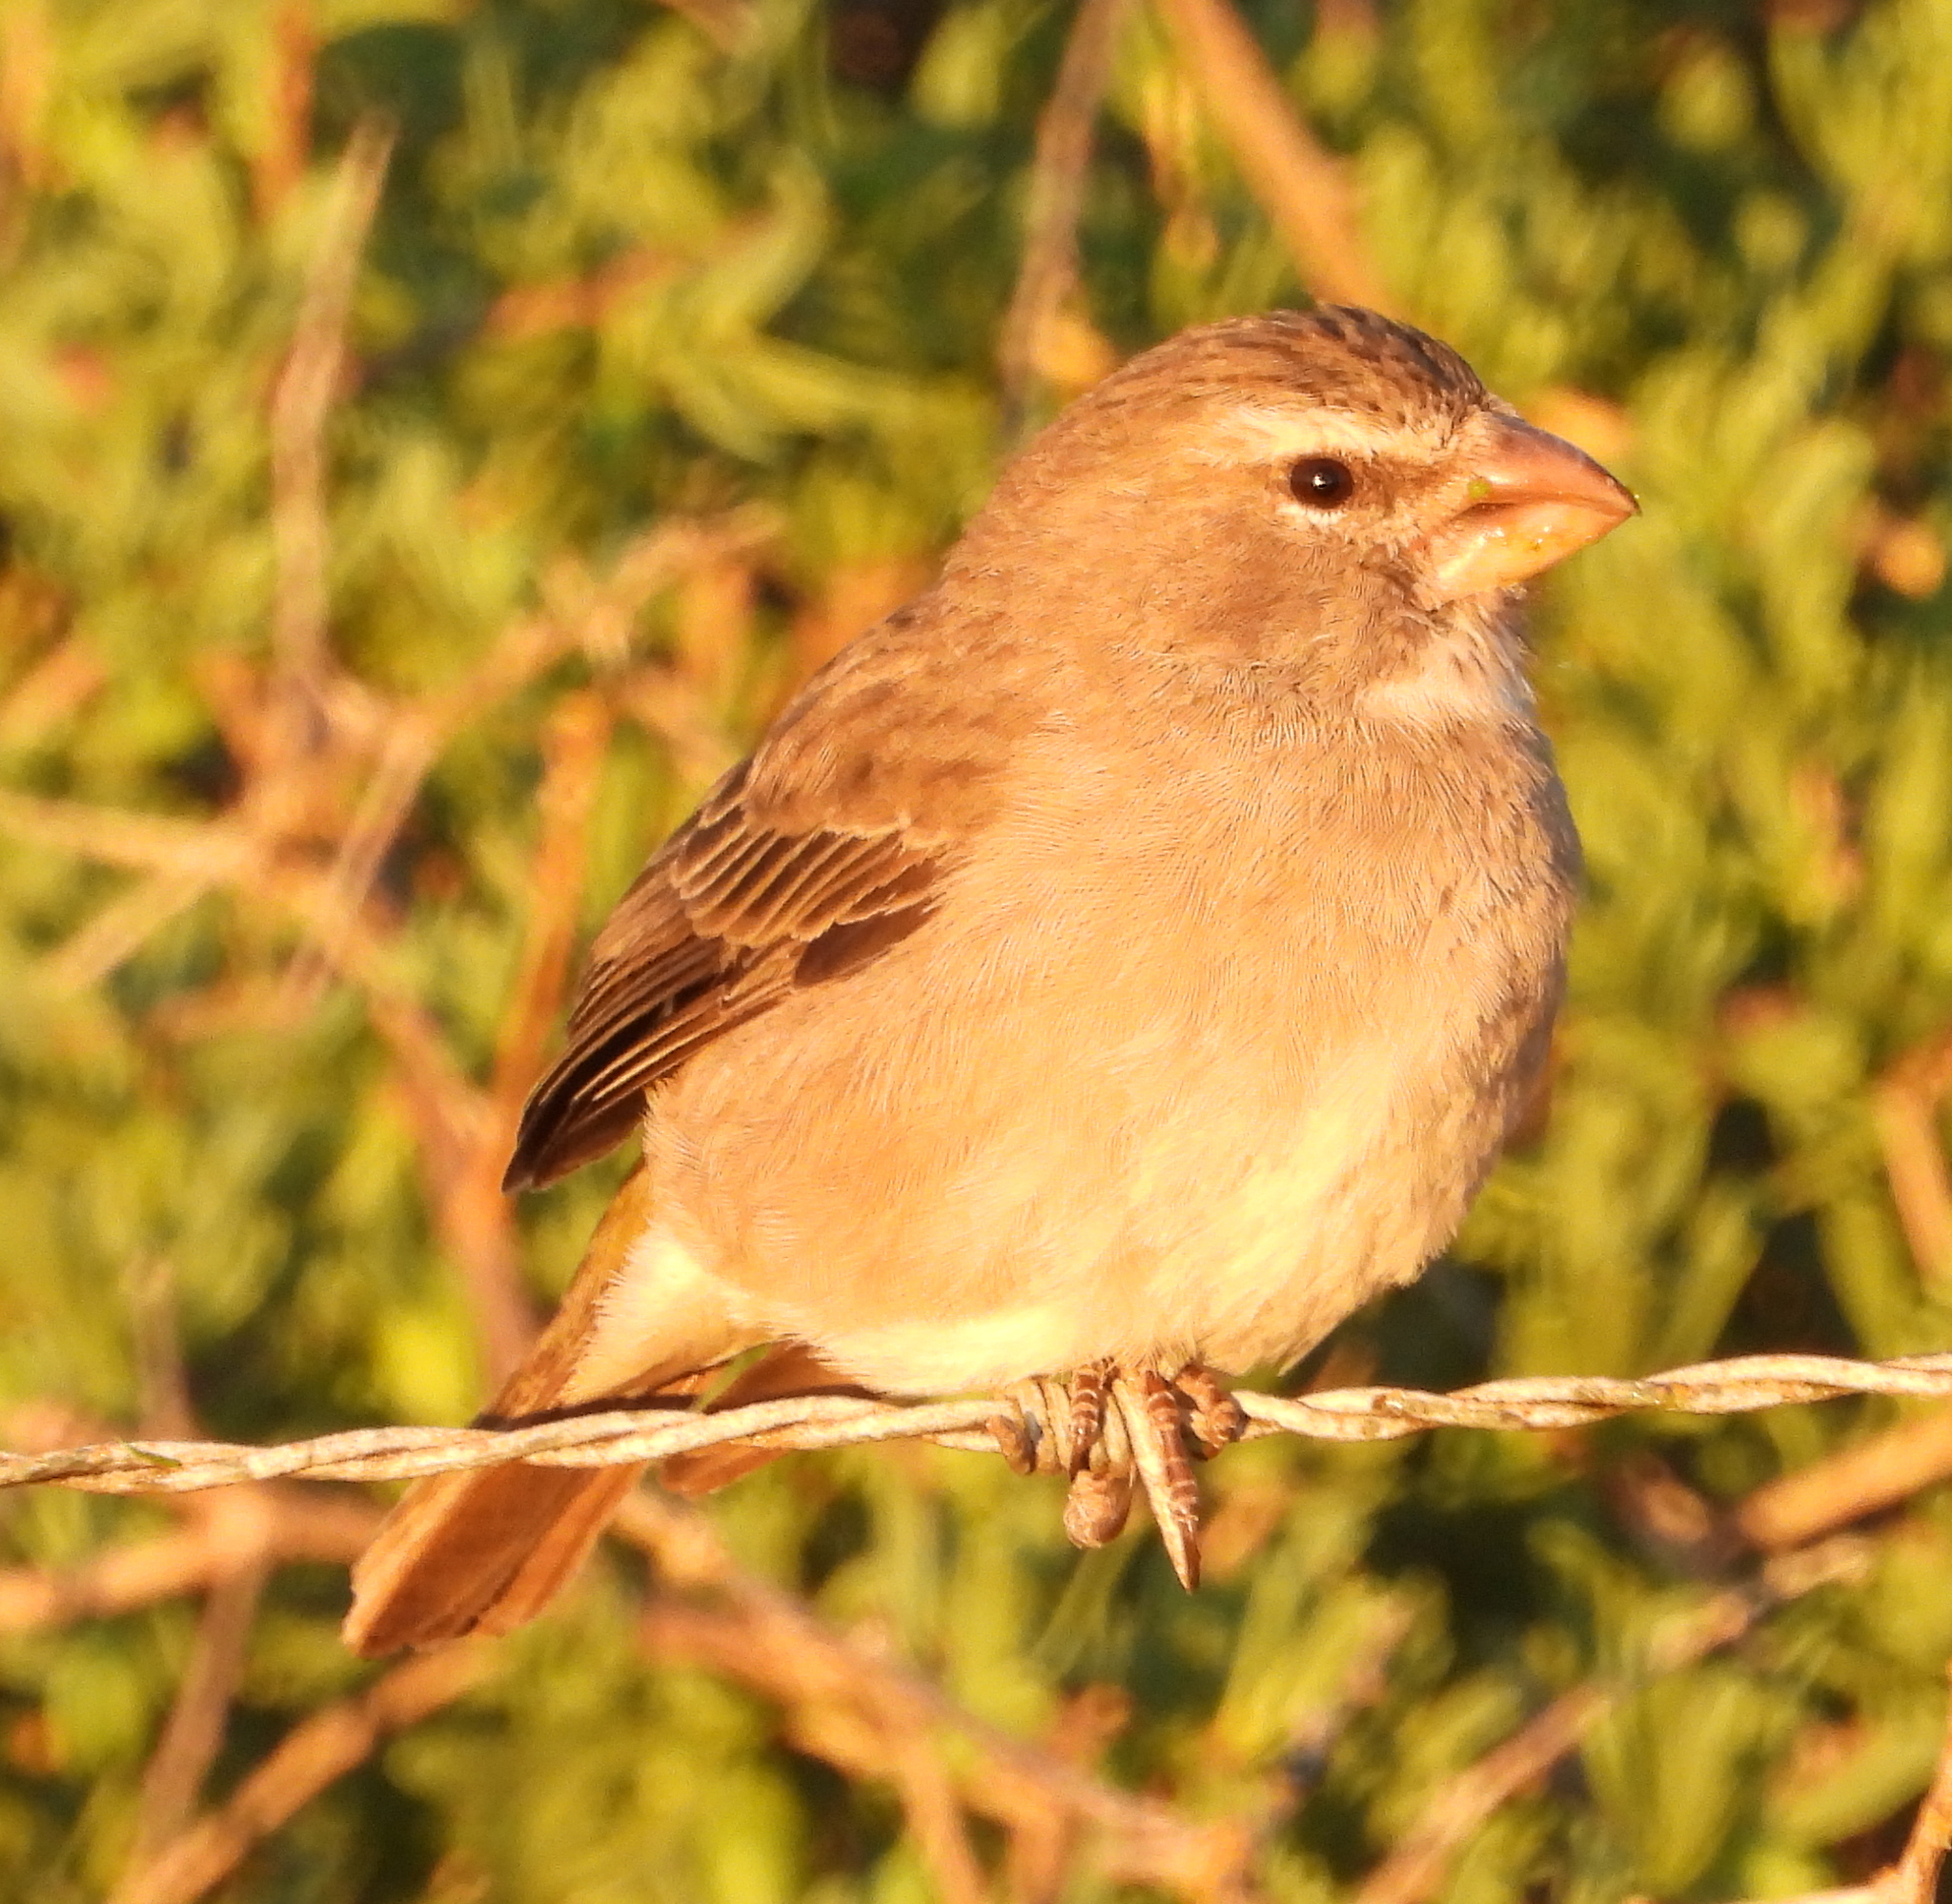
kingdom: Animalia
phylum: Chordata
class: Aves
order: Passeriformes
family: Fringillidae
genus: Crithagra
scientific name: Crithagra albogularis
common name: White-throated canary
